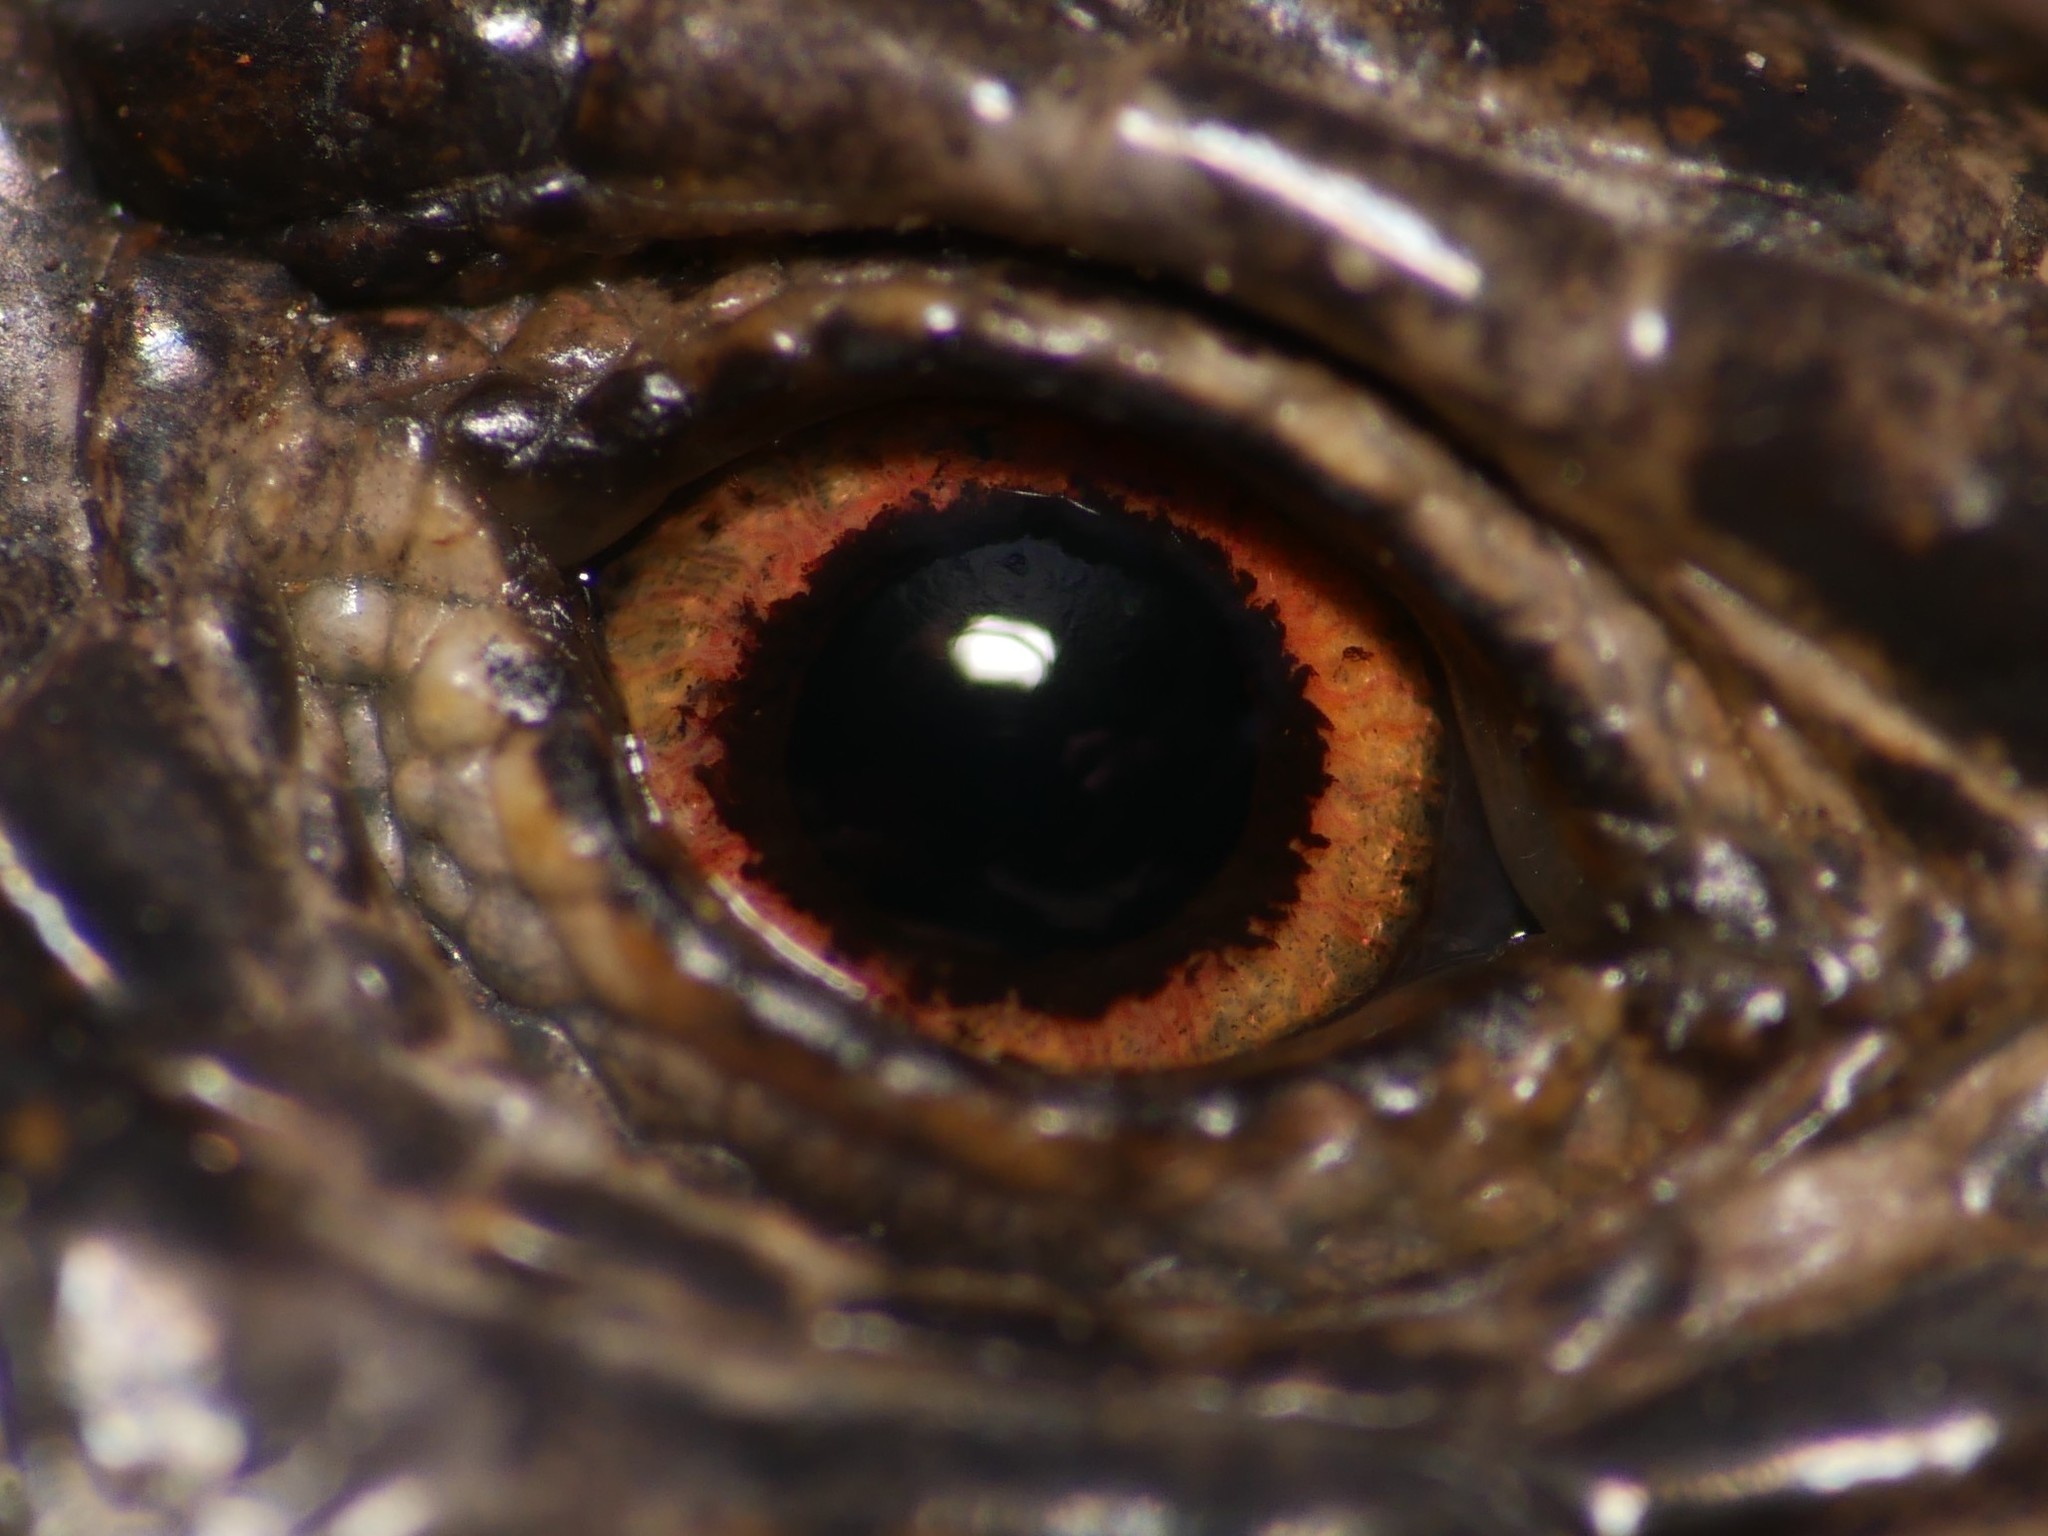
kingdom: Animalia
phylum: Chordata
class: Squamata
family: Lacertidae
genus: Lacerta
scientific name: Lacerta agilis
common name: Sand lizard
